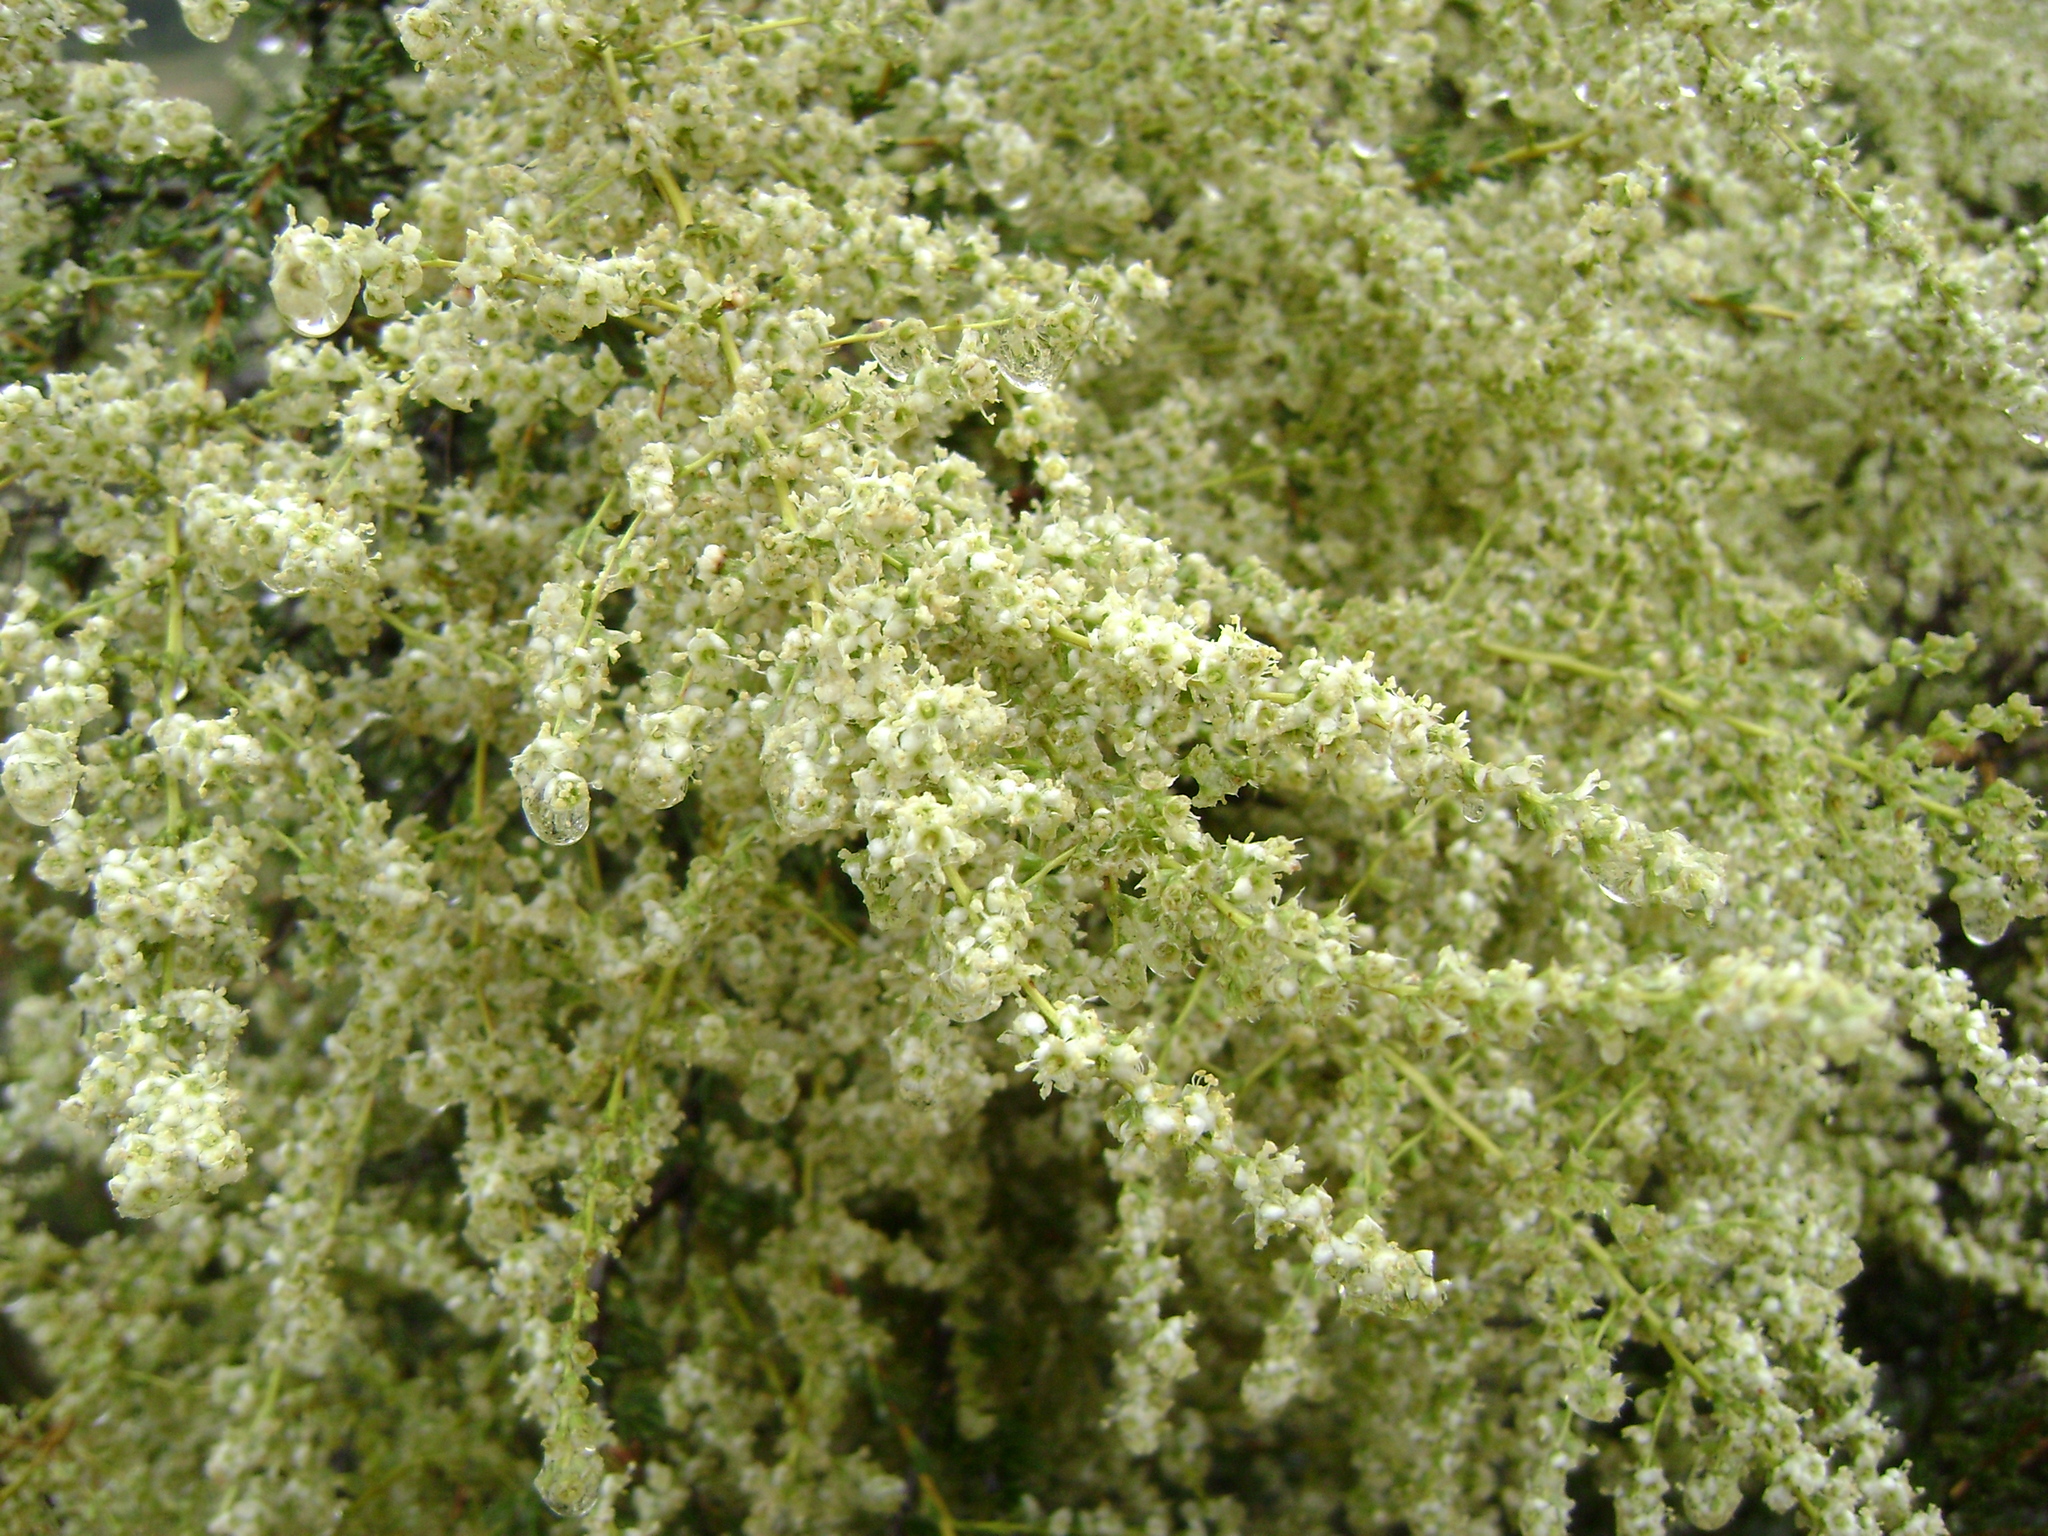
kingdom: Plantae
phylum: Tracheophyta
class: Magnoliopsida
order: Rosales
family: Rosaceae
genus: Adenostoma
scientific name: Adenostoma fasciculatum
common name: Chamise
